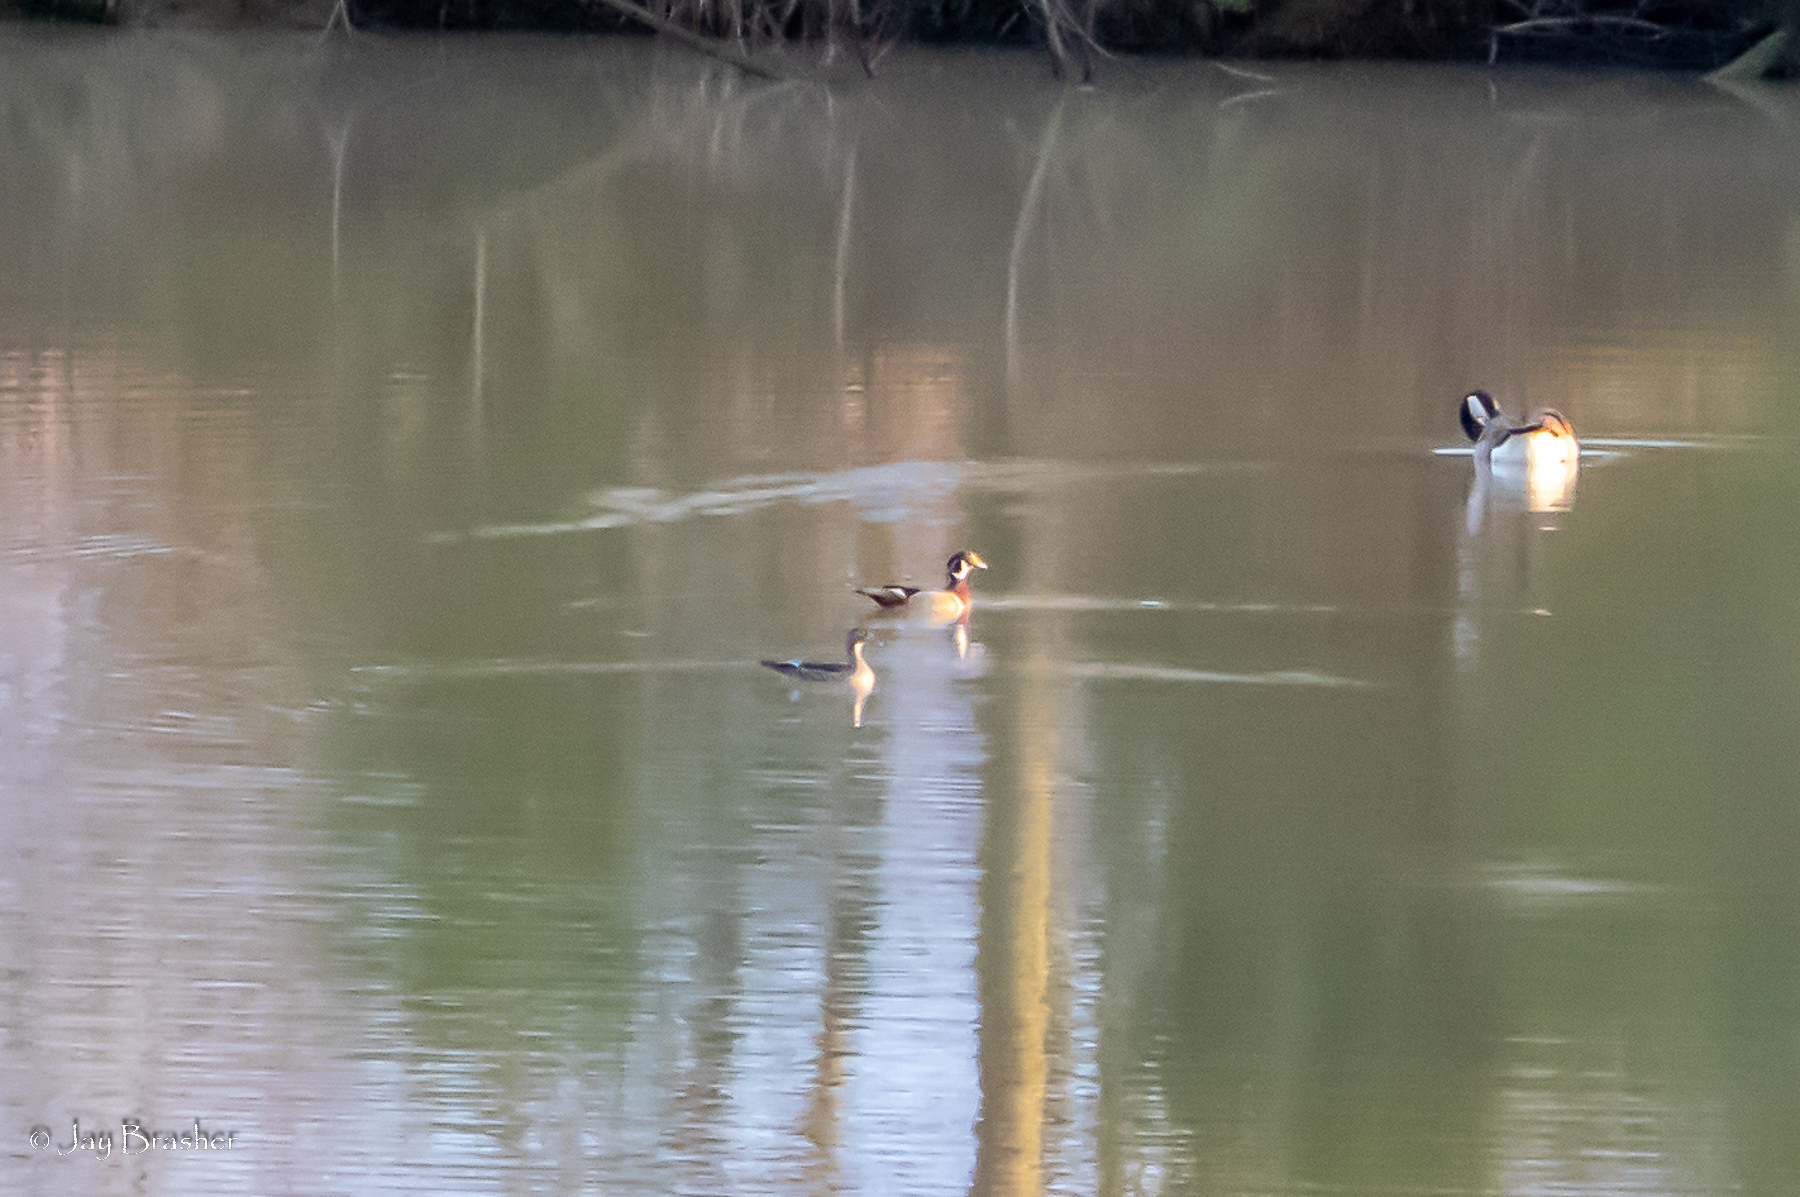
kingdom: Animalia
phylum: Chordata
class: Aves
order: Anseriformes
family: Anatidae
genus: Aix
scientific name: Aix sponsa
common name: Wood duck
